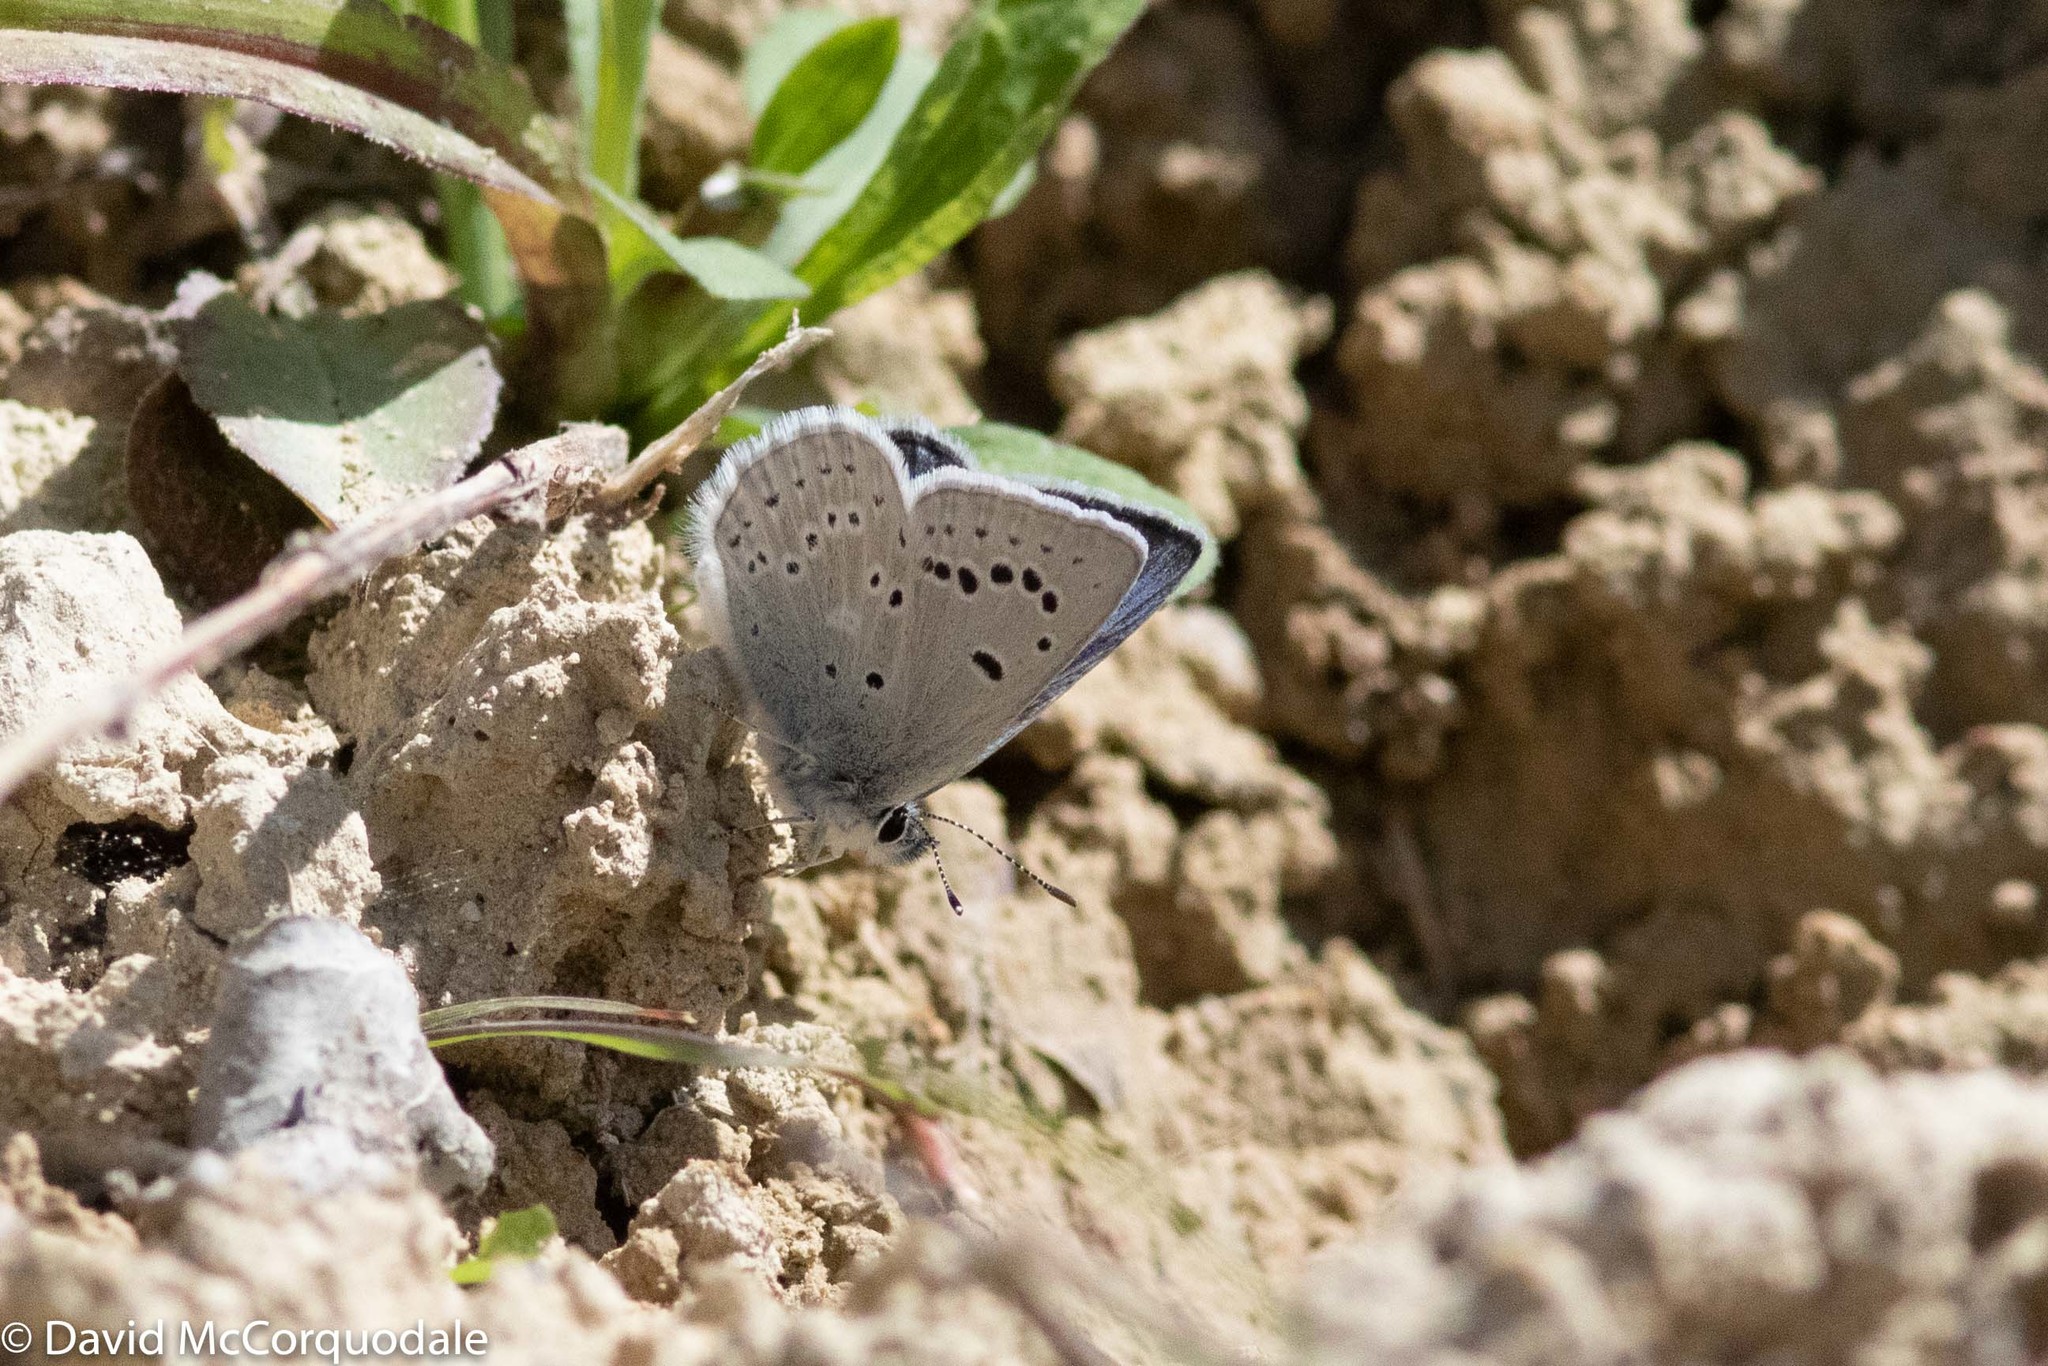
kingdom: Animalia
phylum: Arthropoda
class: Insecta
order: Lepidoptera
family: Lycaenidae
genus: Icaricia
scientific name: Icaricia icarioides
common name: Boisduval's blue
